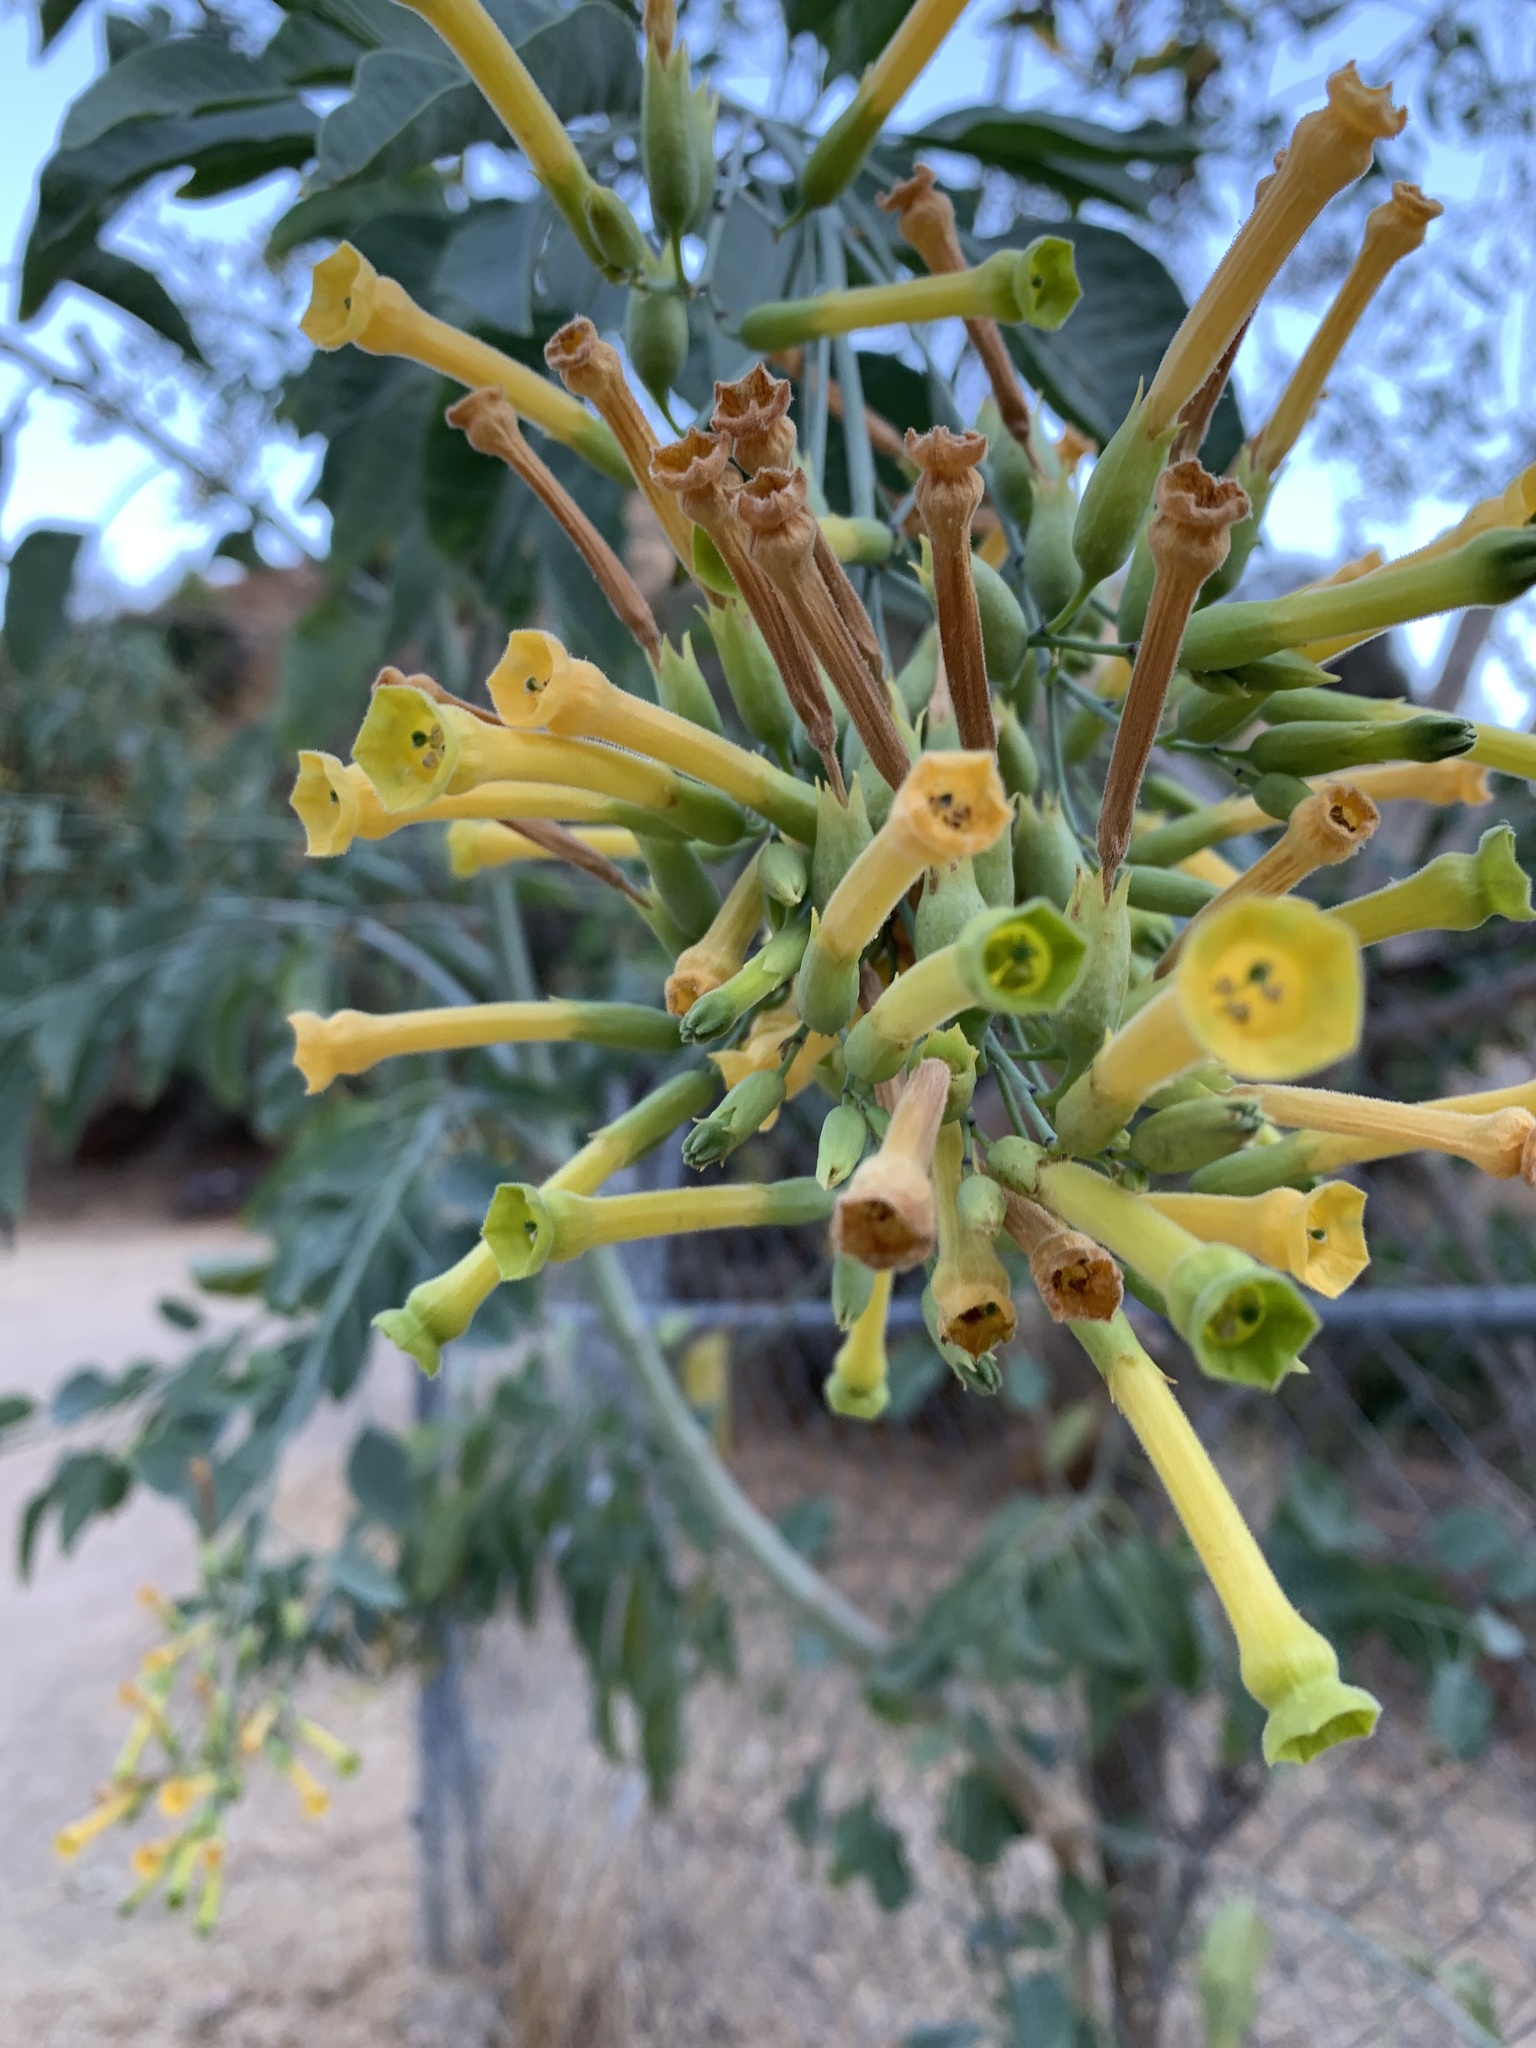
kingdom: Plantae
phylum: Tracheophyta
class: Magnoliopsida
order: Solanales
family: Solanaceae
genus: Nicotiana
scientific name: Nicotiana glauca
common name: Tree tobacco
